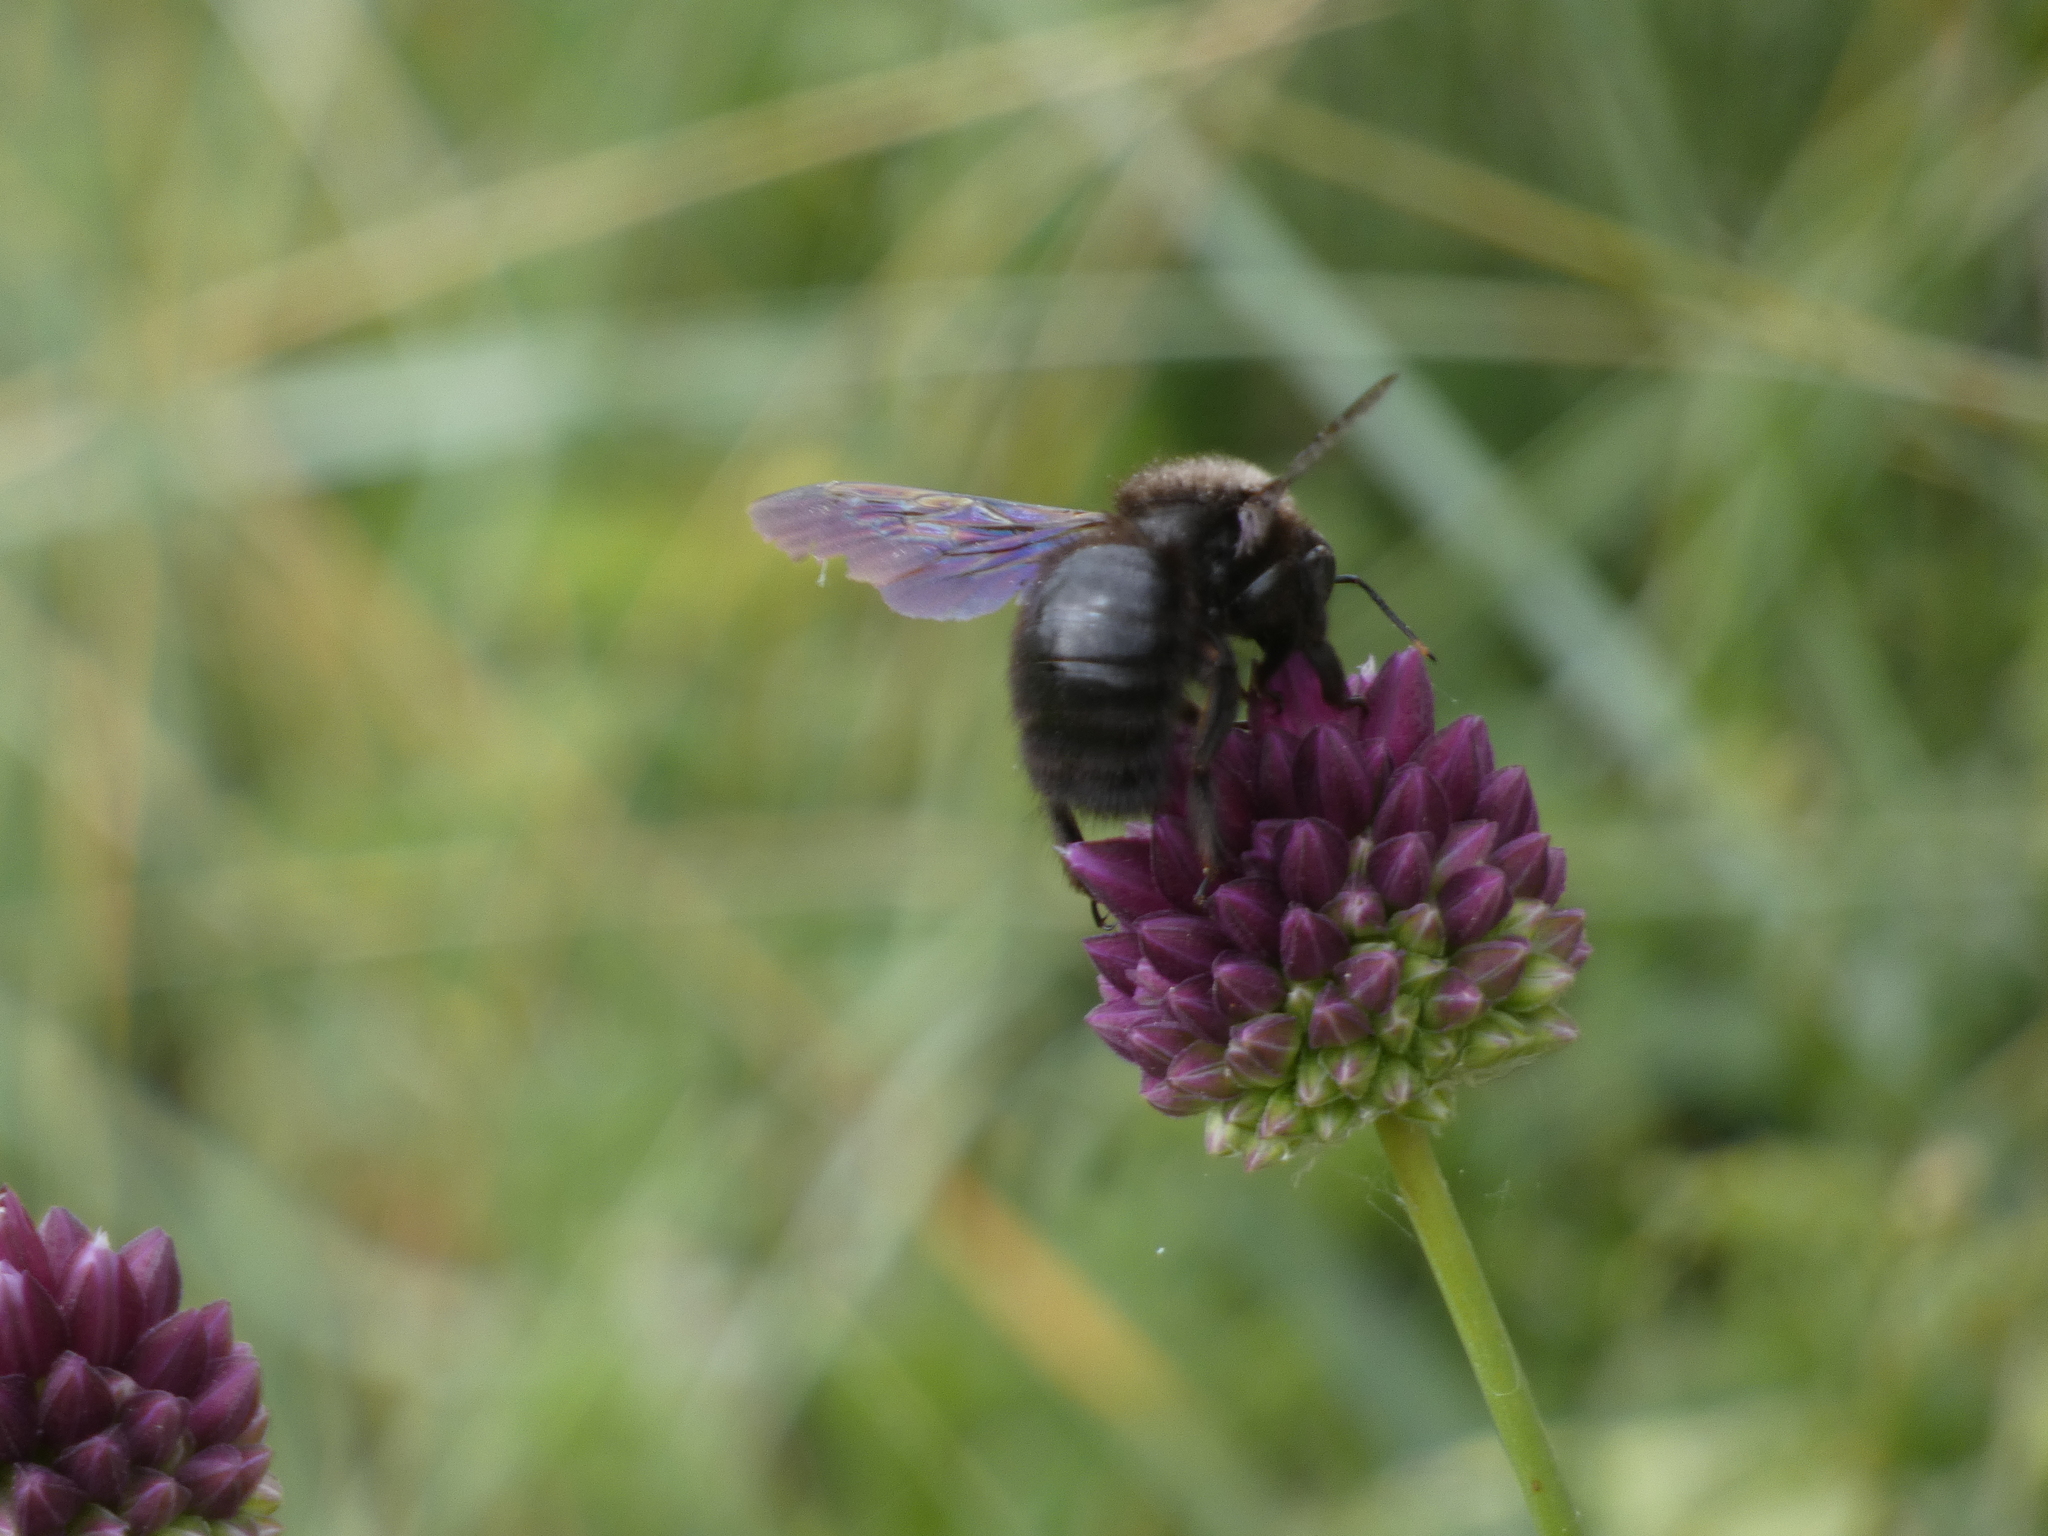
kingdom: Animalia
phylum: Arthropoda
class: Insecta
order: Hymenoptera
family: Apidae
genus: Xylocopa
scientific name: Xylocopa violacea
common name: Violet carpenter bee
